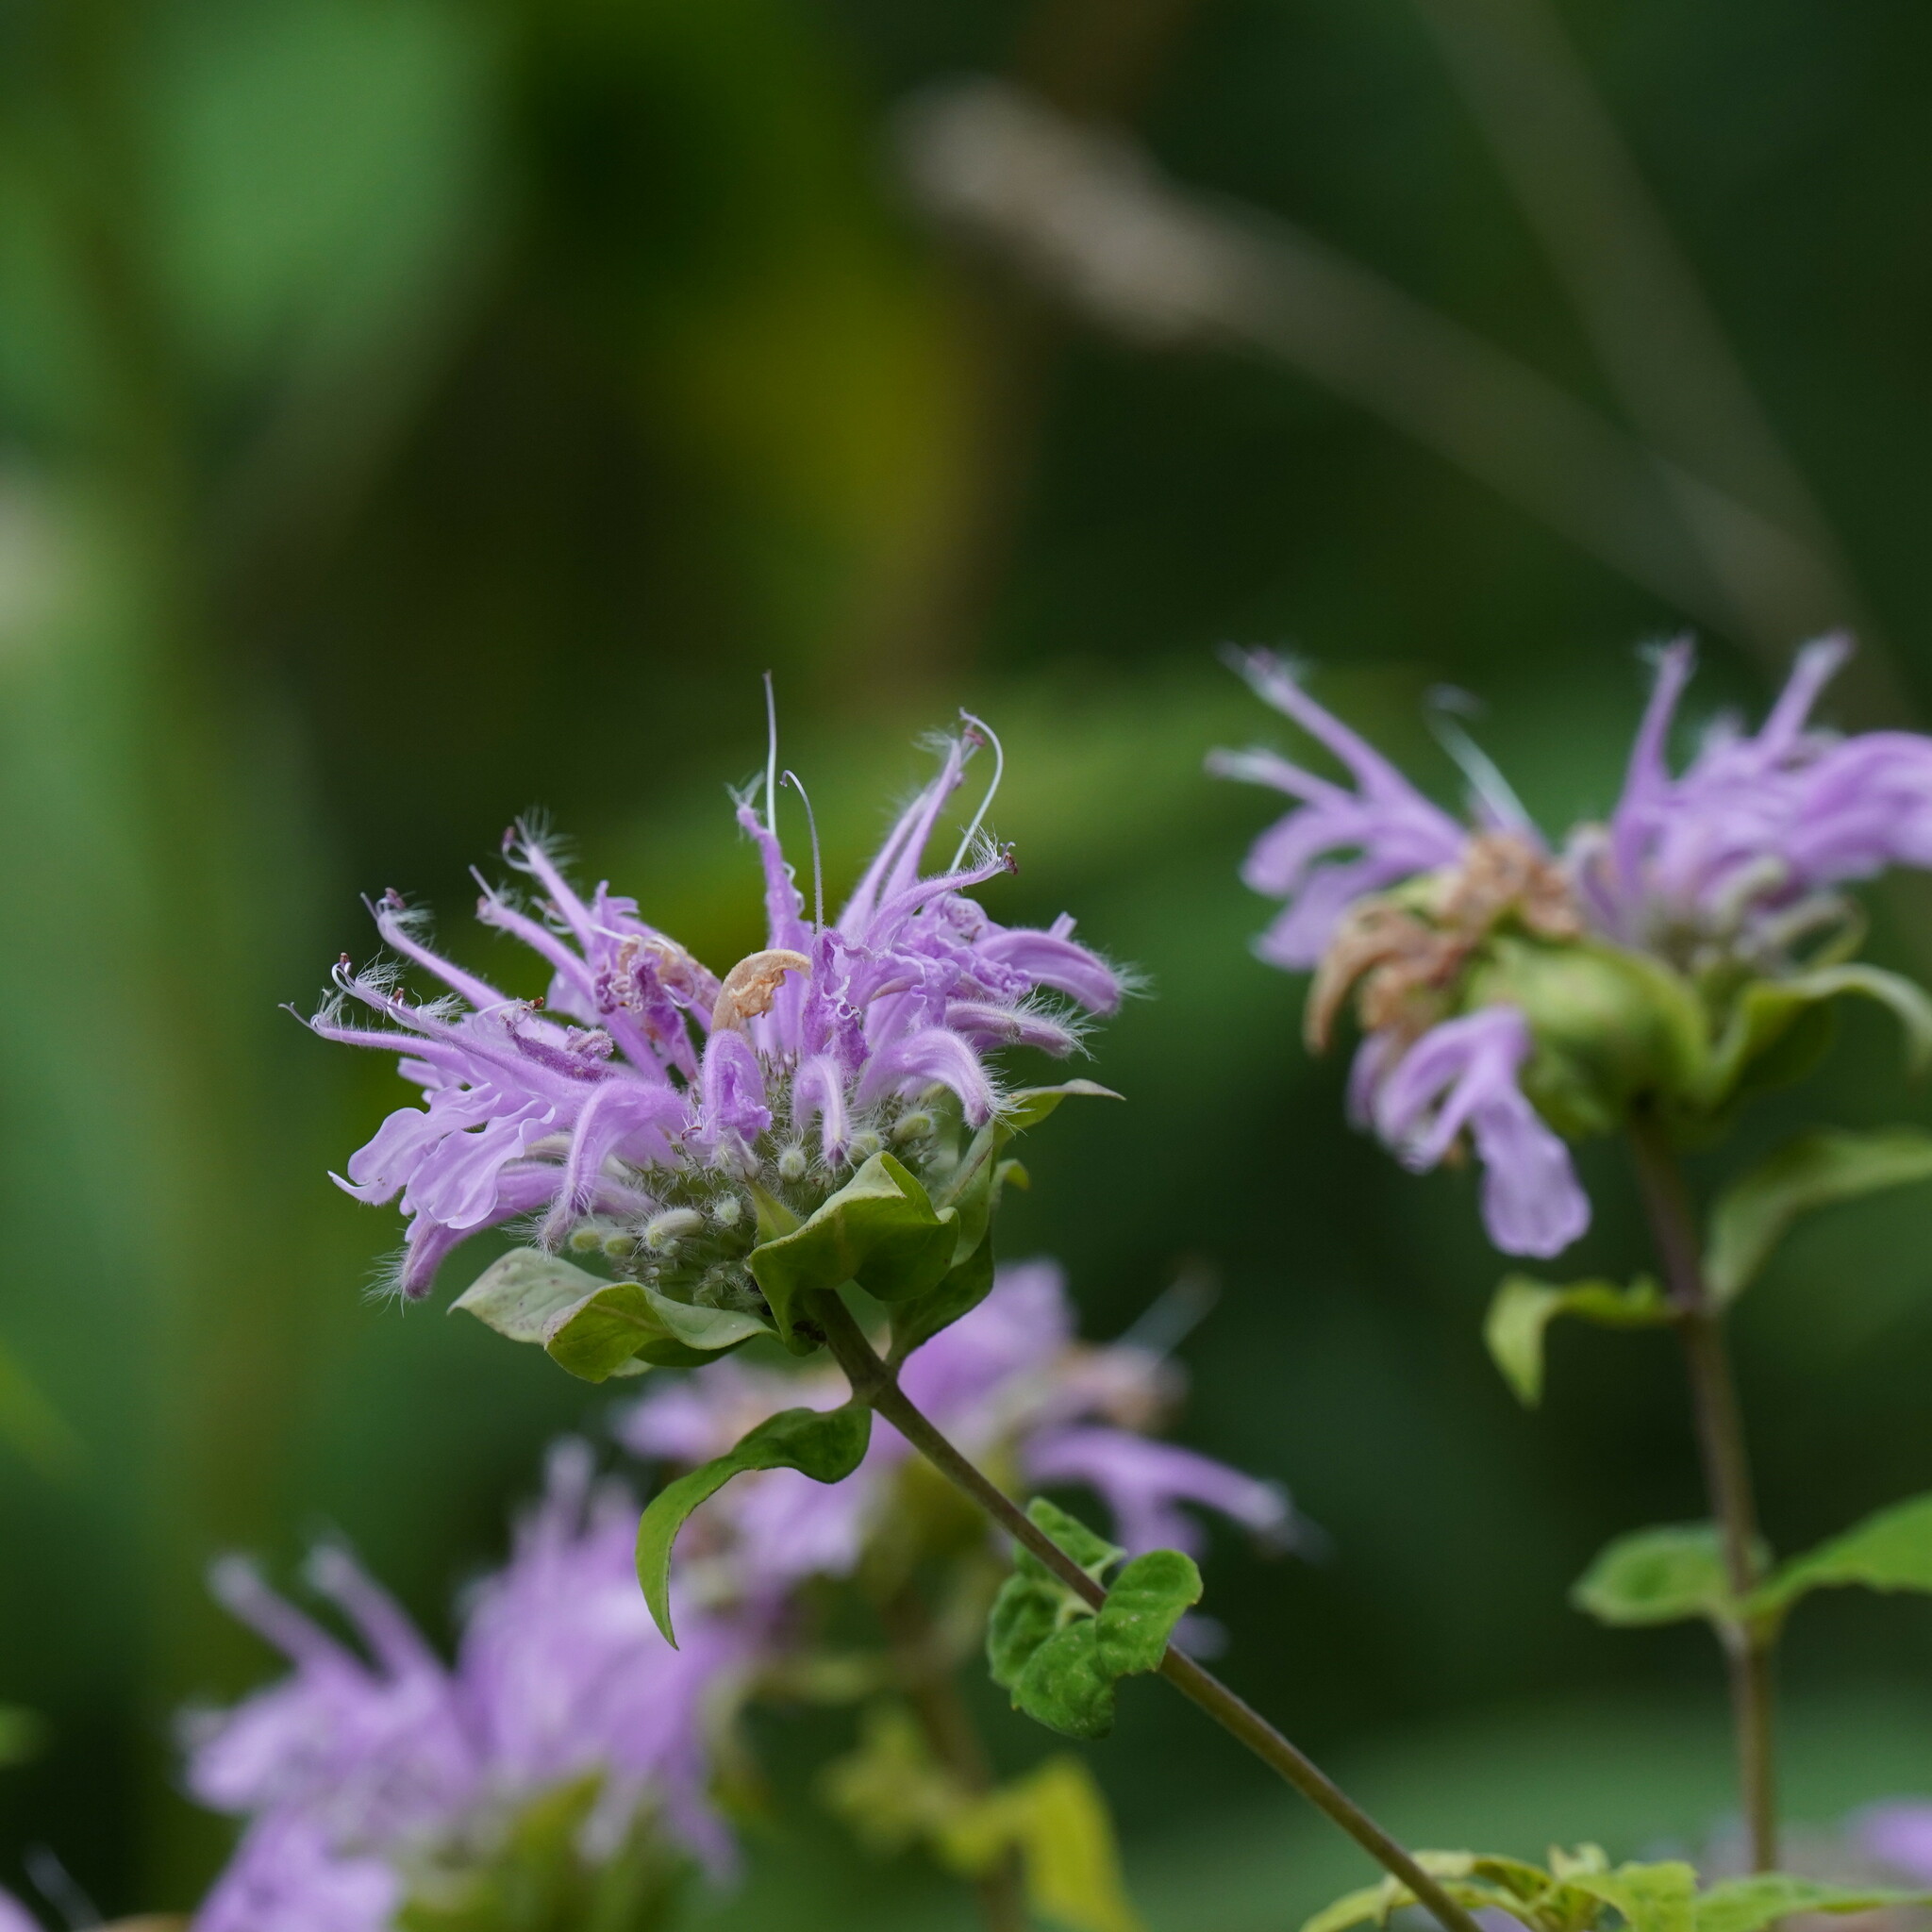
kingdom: Plantae
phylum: Tracheophyta
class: Magnoliopsida
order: Lamiales
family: Lamiaceae
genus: Monarda
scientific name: Monarda fistulosa
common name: Purple beebalm
